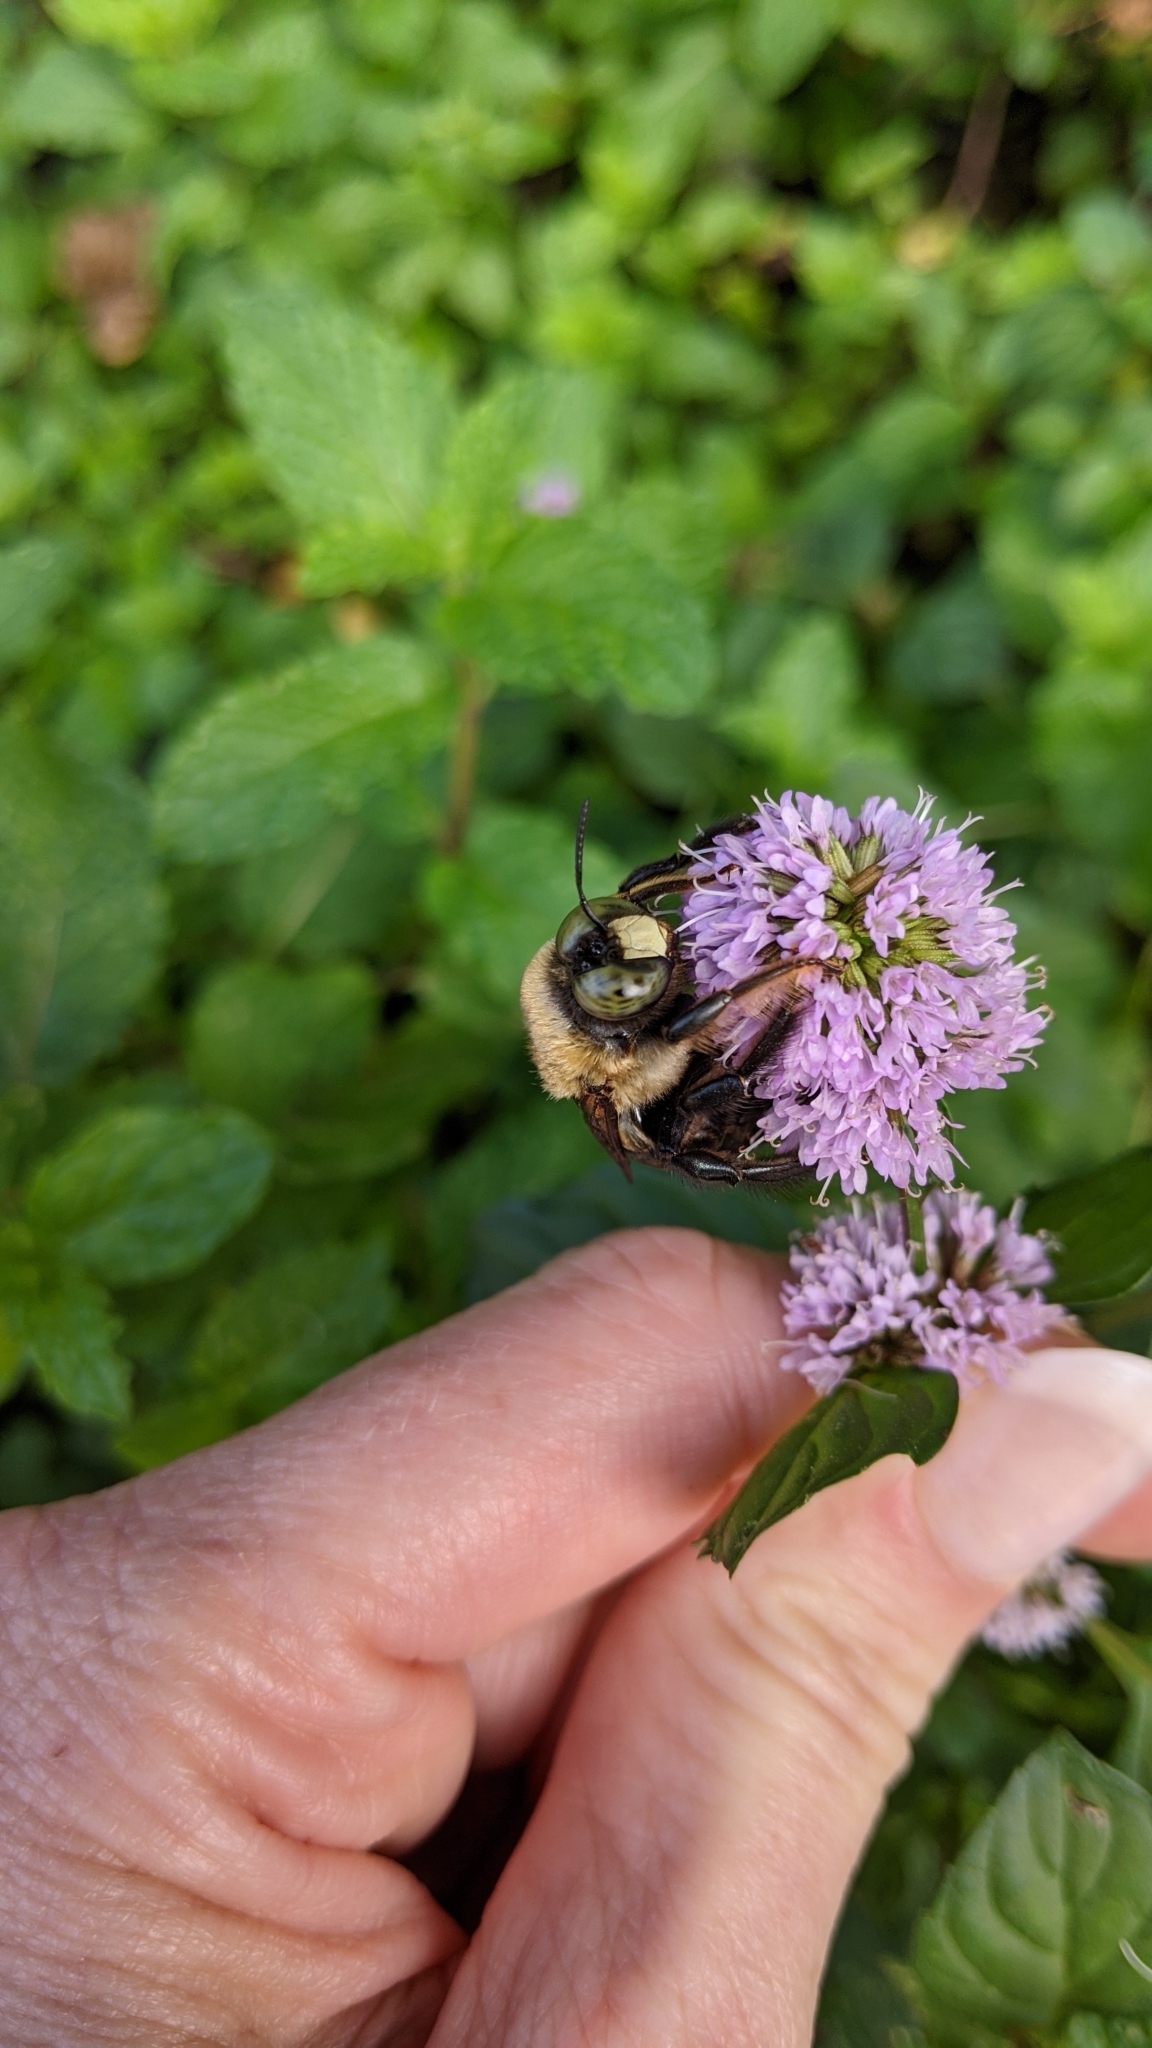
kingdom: Animalia
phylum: Arthropoda
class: Insecta
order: Hymenoptera
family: Apidae
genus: Xylocopa
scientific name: Xylocopa virginica
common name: Carpenter bee
